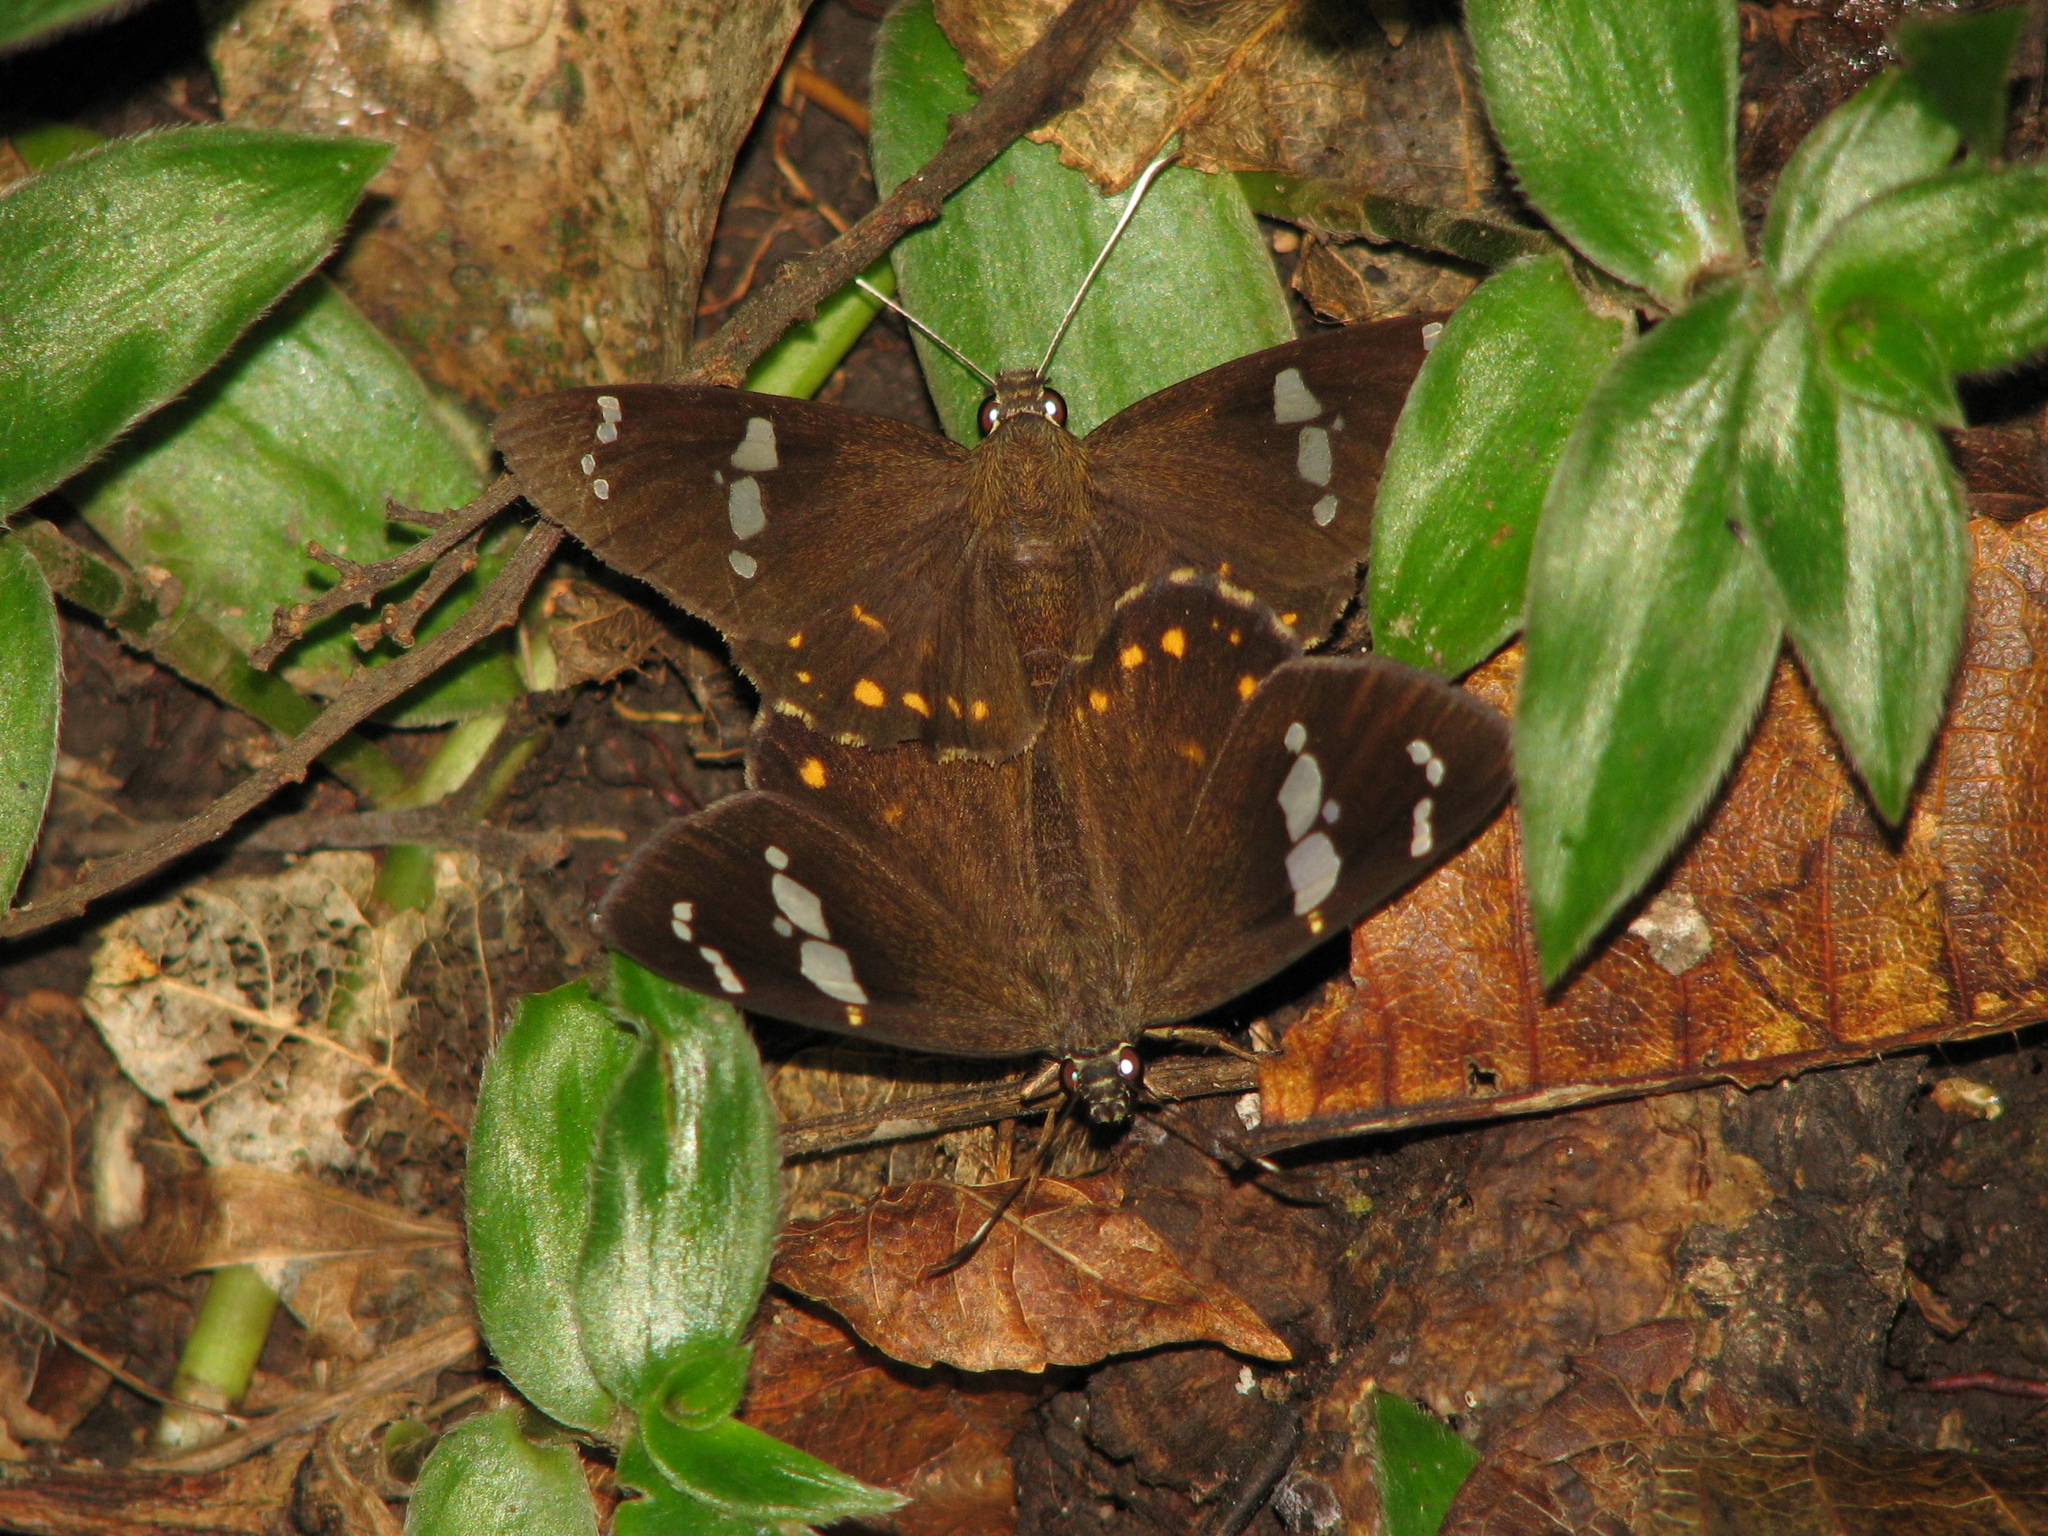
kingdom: Animalia
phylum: Arthropoda
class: Insecta
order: Lepidoptera
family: Hesperiidae
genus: Celaenorrhinus
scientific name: Celaenorrhinus putra
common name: Restricted spotted flat
